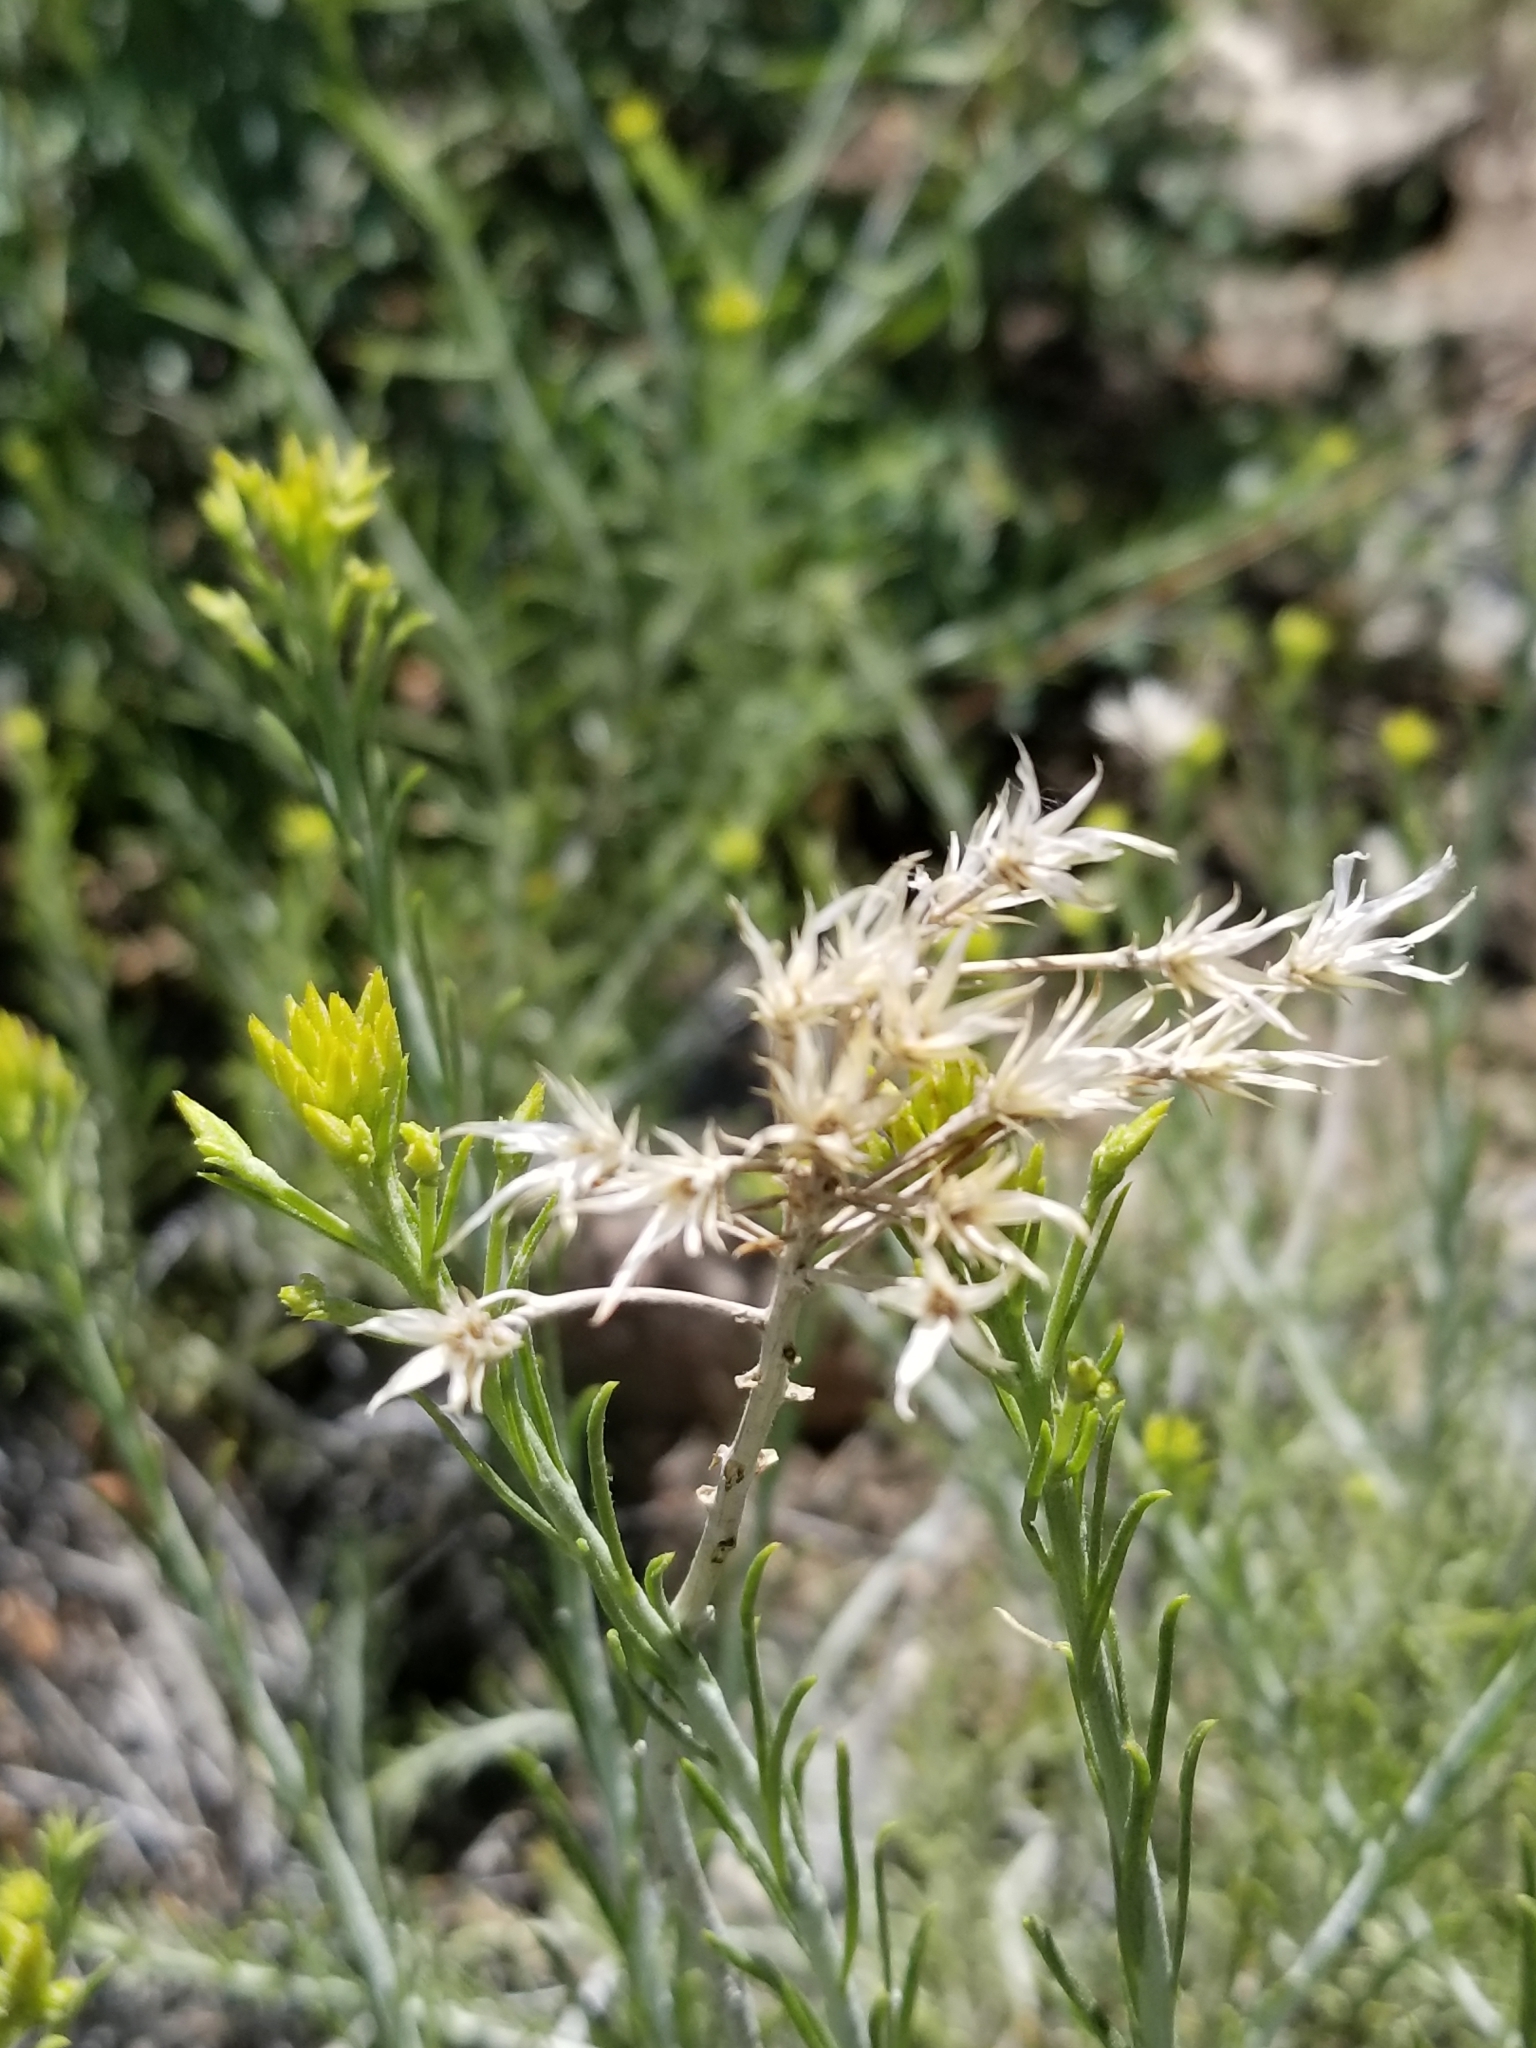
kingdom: Plantae
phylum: Tracheophyta
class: Magnoliopsida
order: Asterales
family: Asteraceae
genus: Ericameria
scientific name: Ericameria nauseosa
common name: Rubber rabbitbrush
